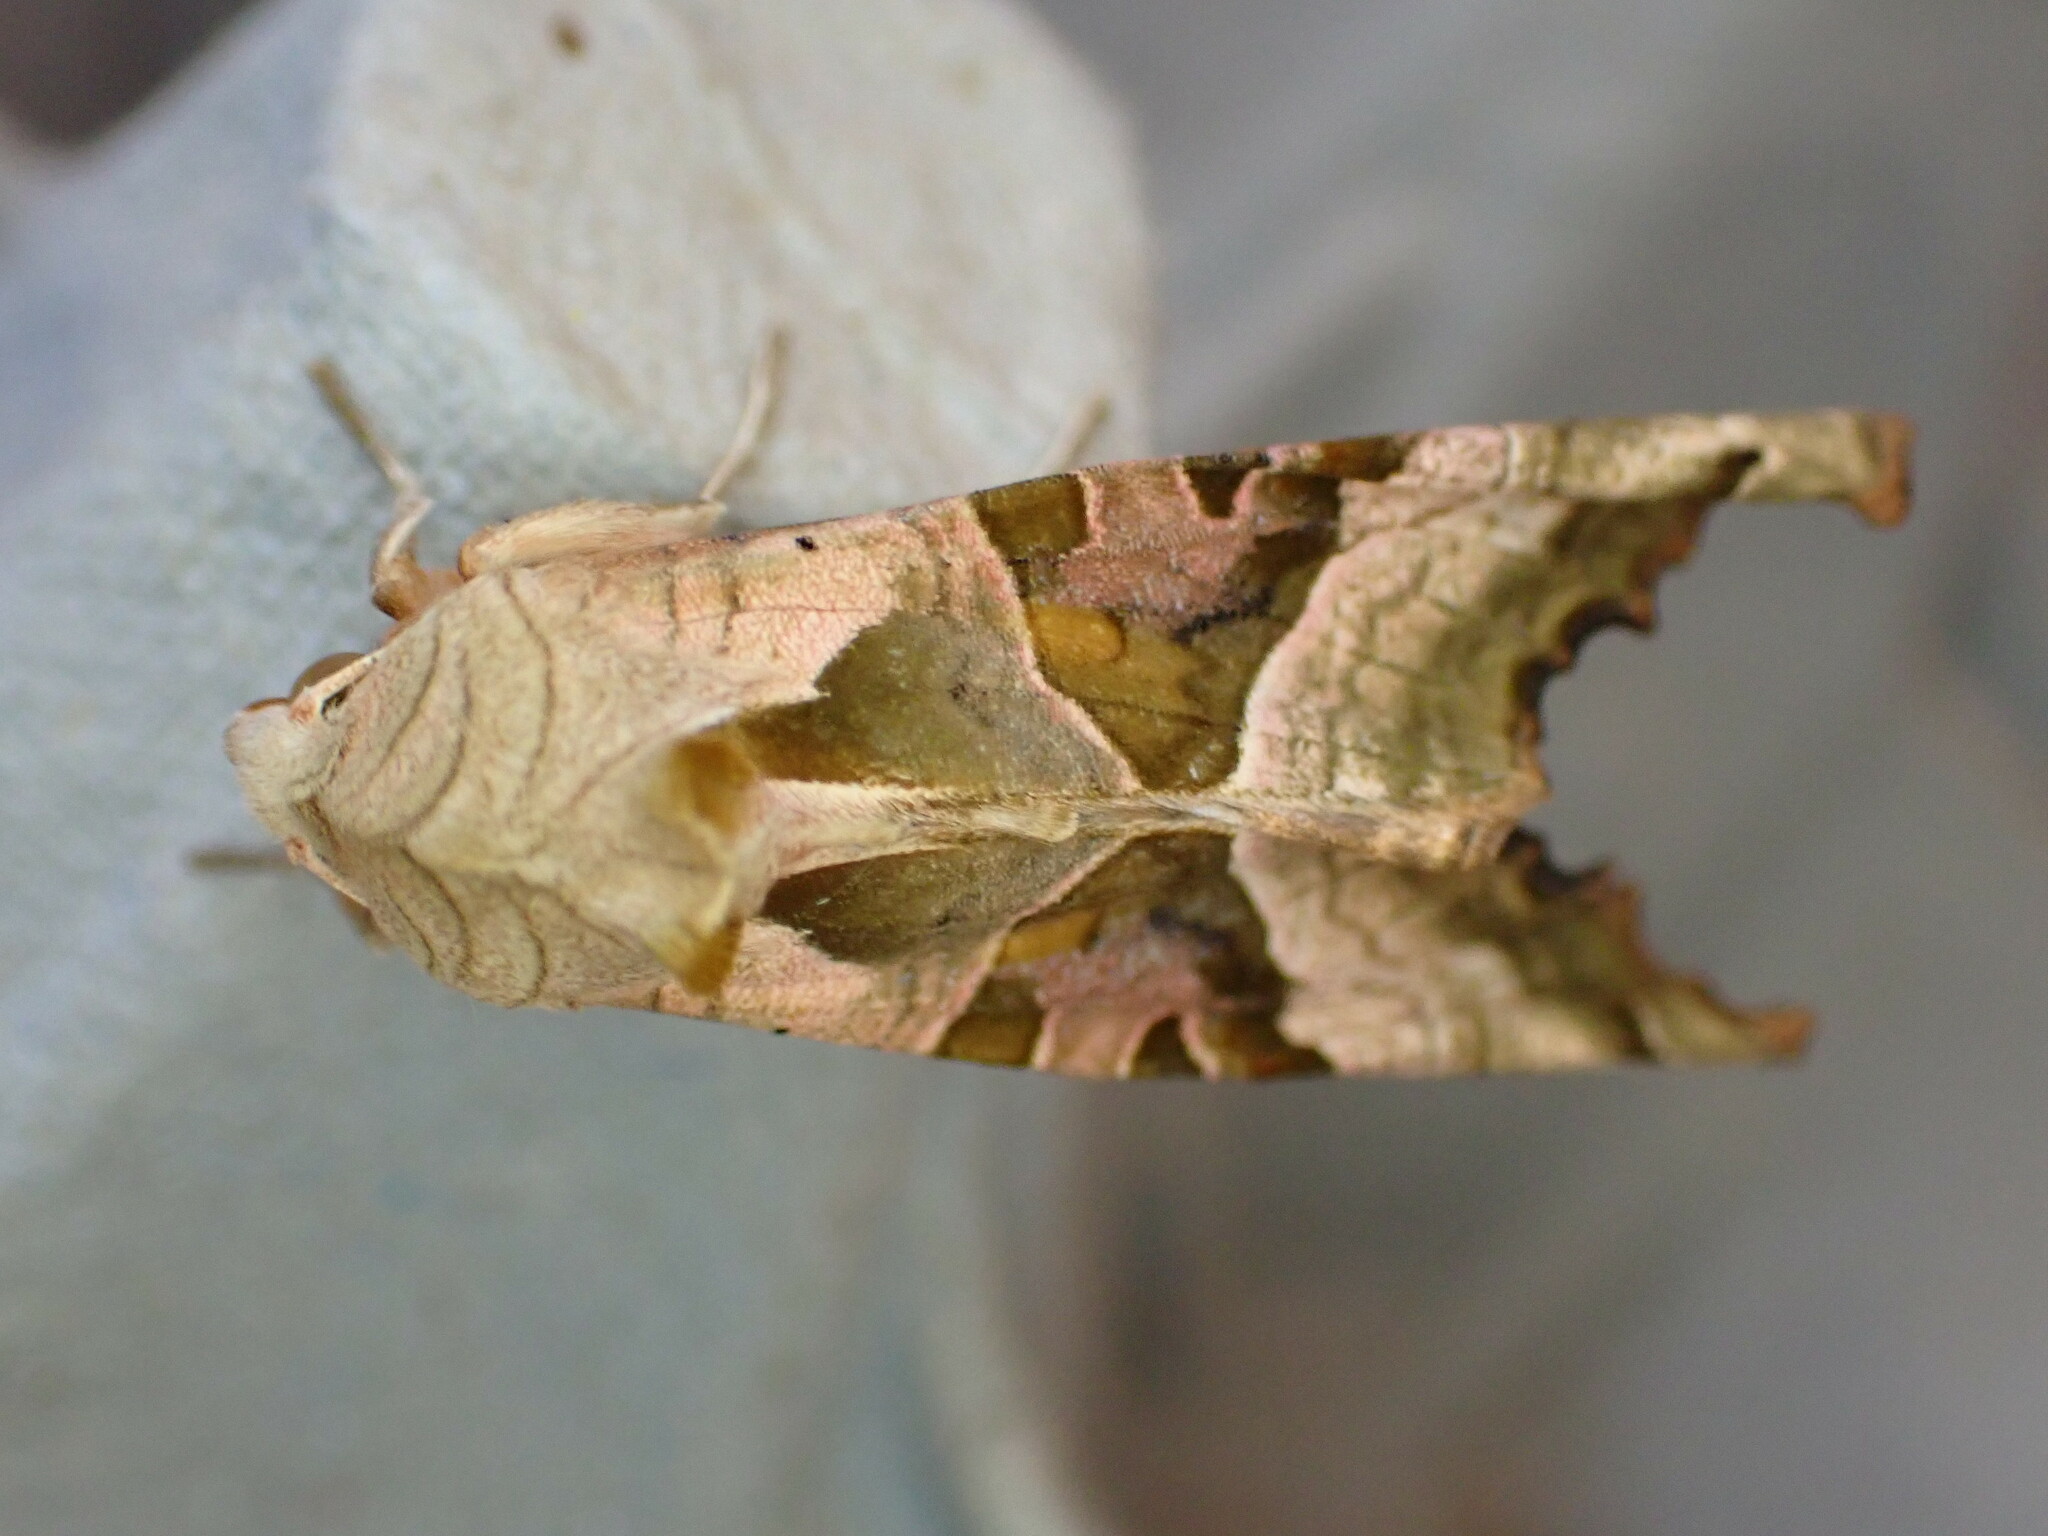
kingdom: Animalia
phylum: Arthropoda
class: Insecta
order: Lepidoptera
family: Noctuidae
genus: Phlogophora
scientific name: Phlogophora meticulosa
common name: Angle shades
